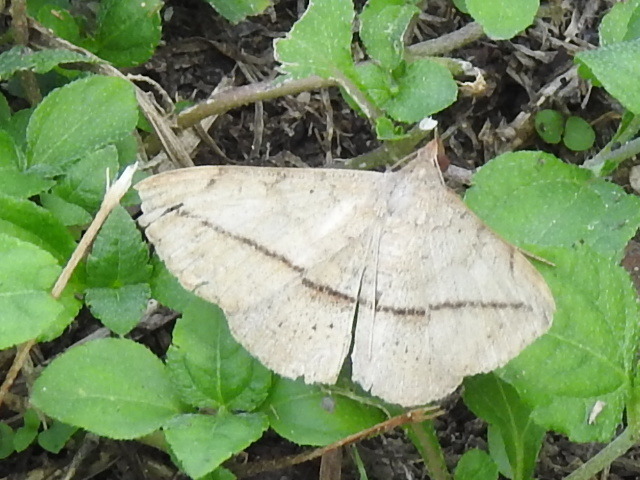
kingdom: Animalia
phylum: Arthropoda
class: Insecta
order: Lepidoptera
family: Erebidae
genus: Anticarsia
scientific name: Anticarsia gemmatalis
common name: Cutworm moth
